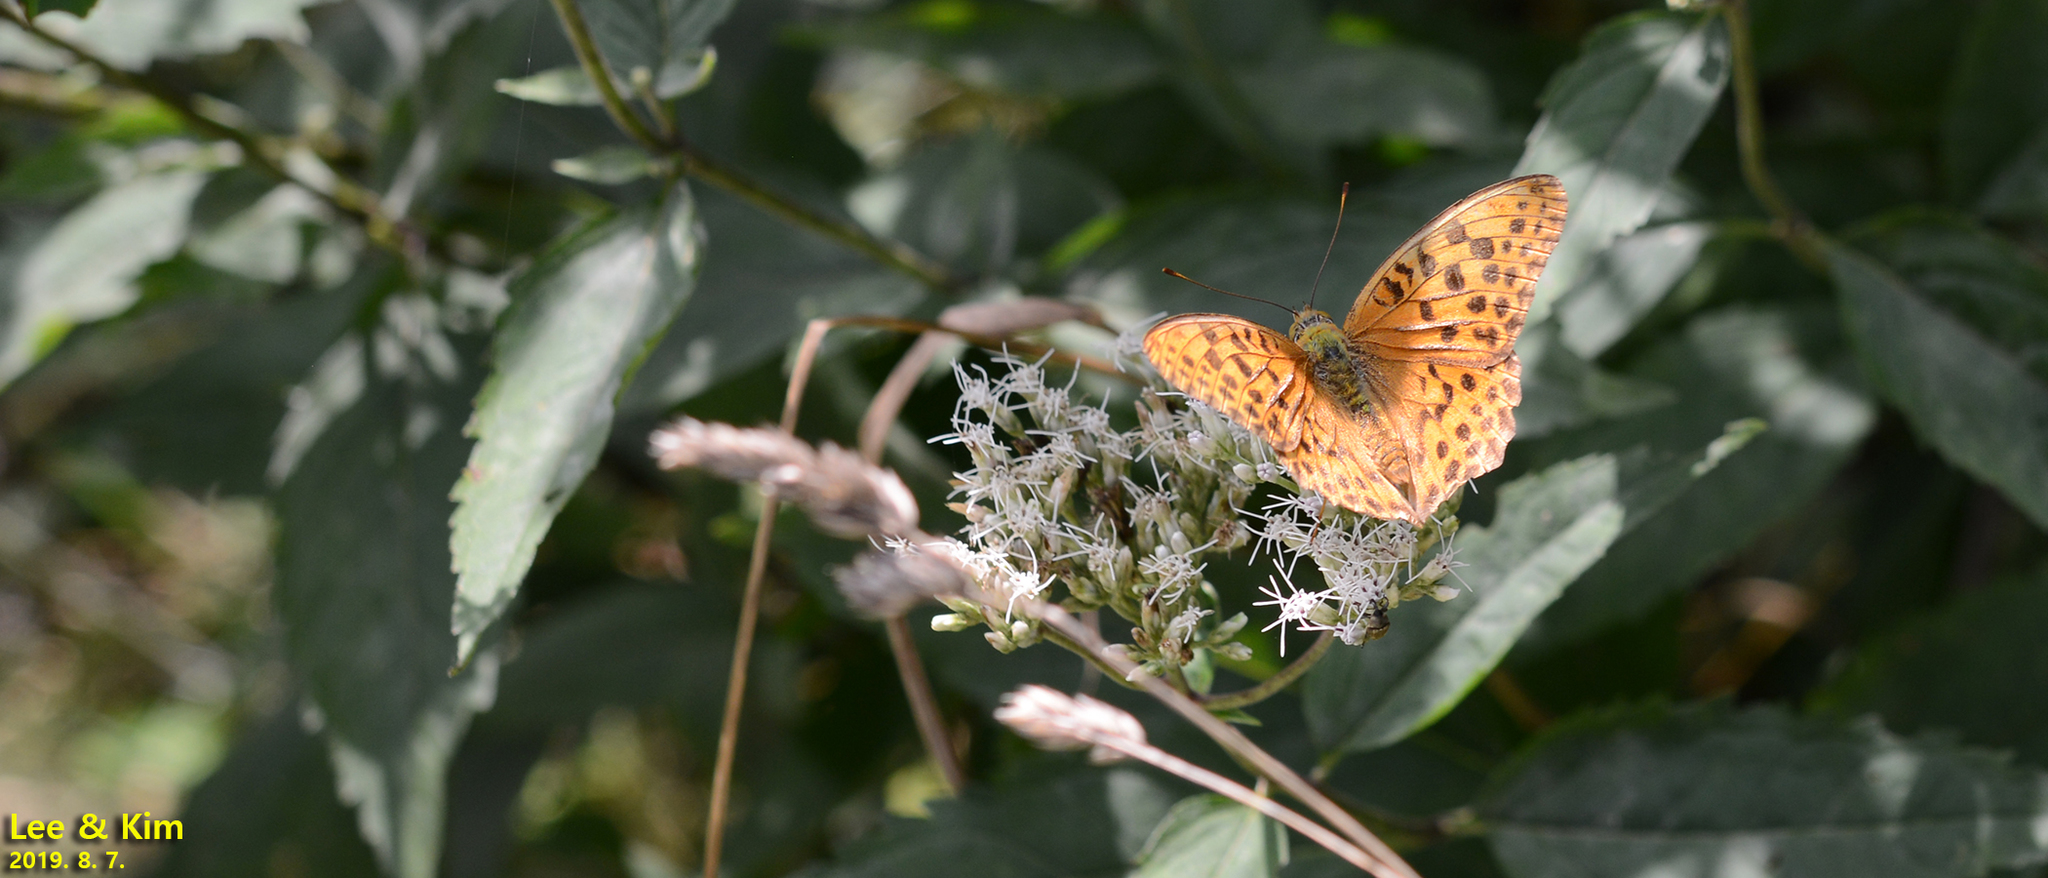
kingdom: Animalia
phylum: Arthropoda
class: Insecta
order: Lepidoptera
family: Nymphalidae
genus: Argyronome
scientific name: Argyronome ruslana
